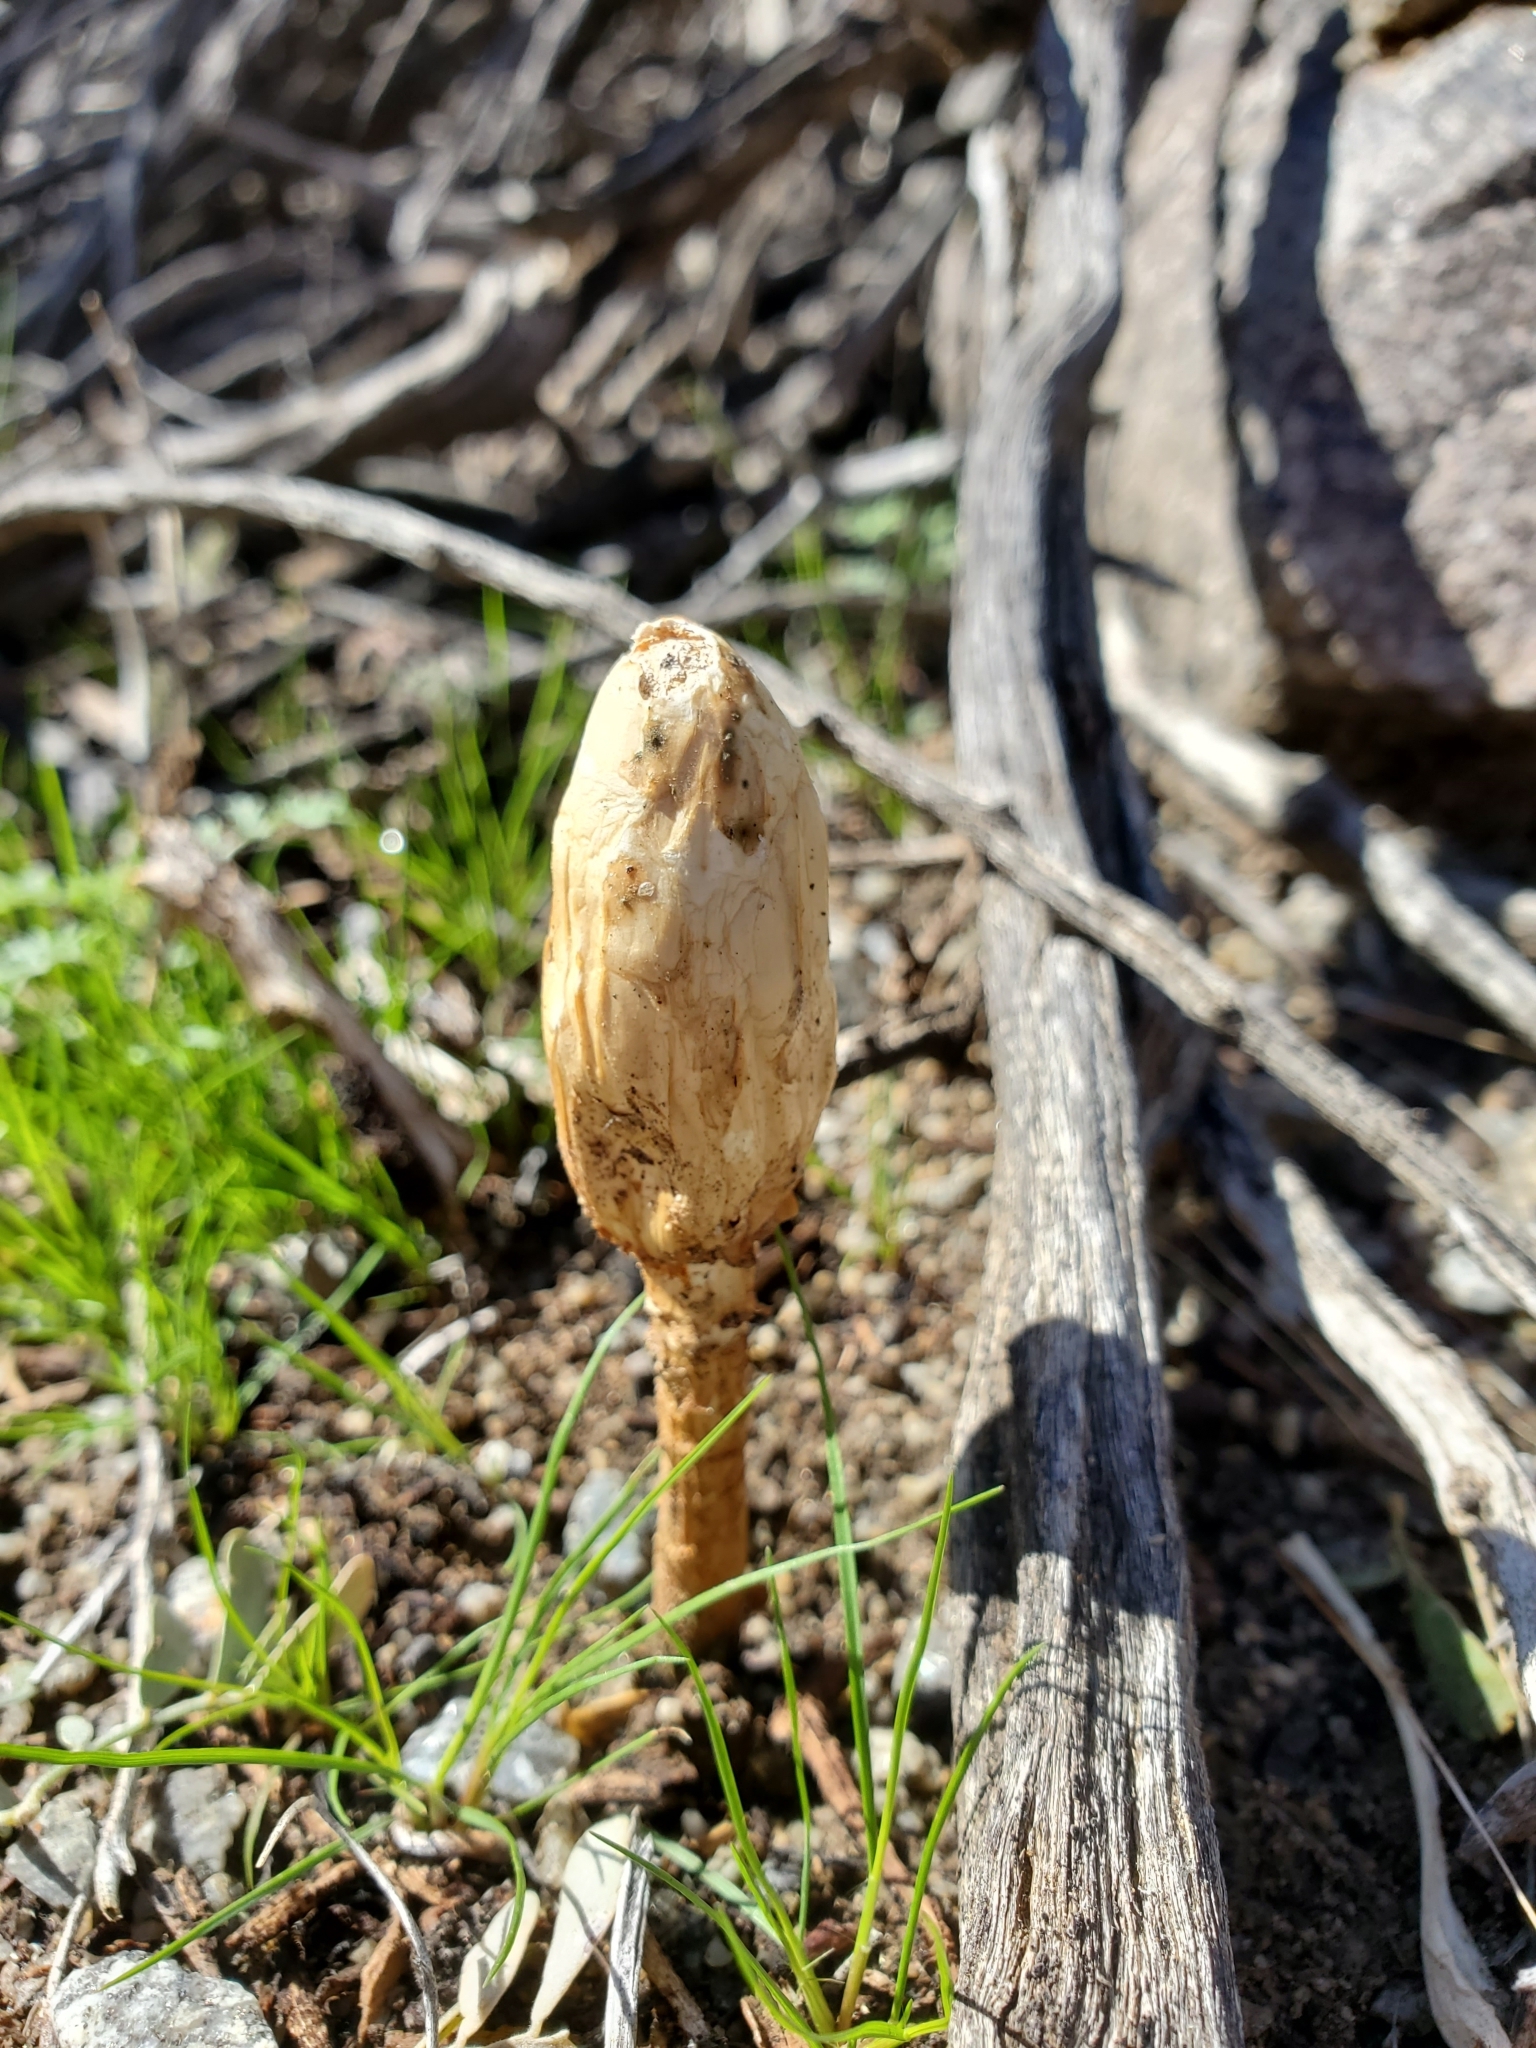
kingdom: Fungi
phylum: Basidiomycota
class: Agaricomycetes
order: Agaricales
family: Agaricaceae
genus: Podaxis
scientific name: Podaxis pistillaris
